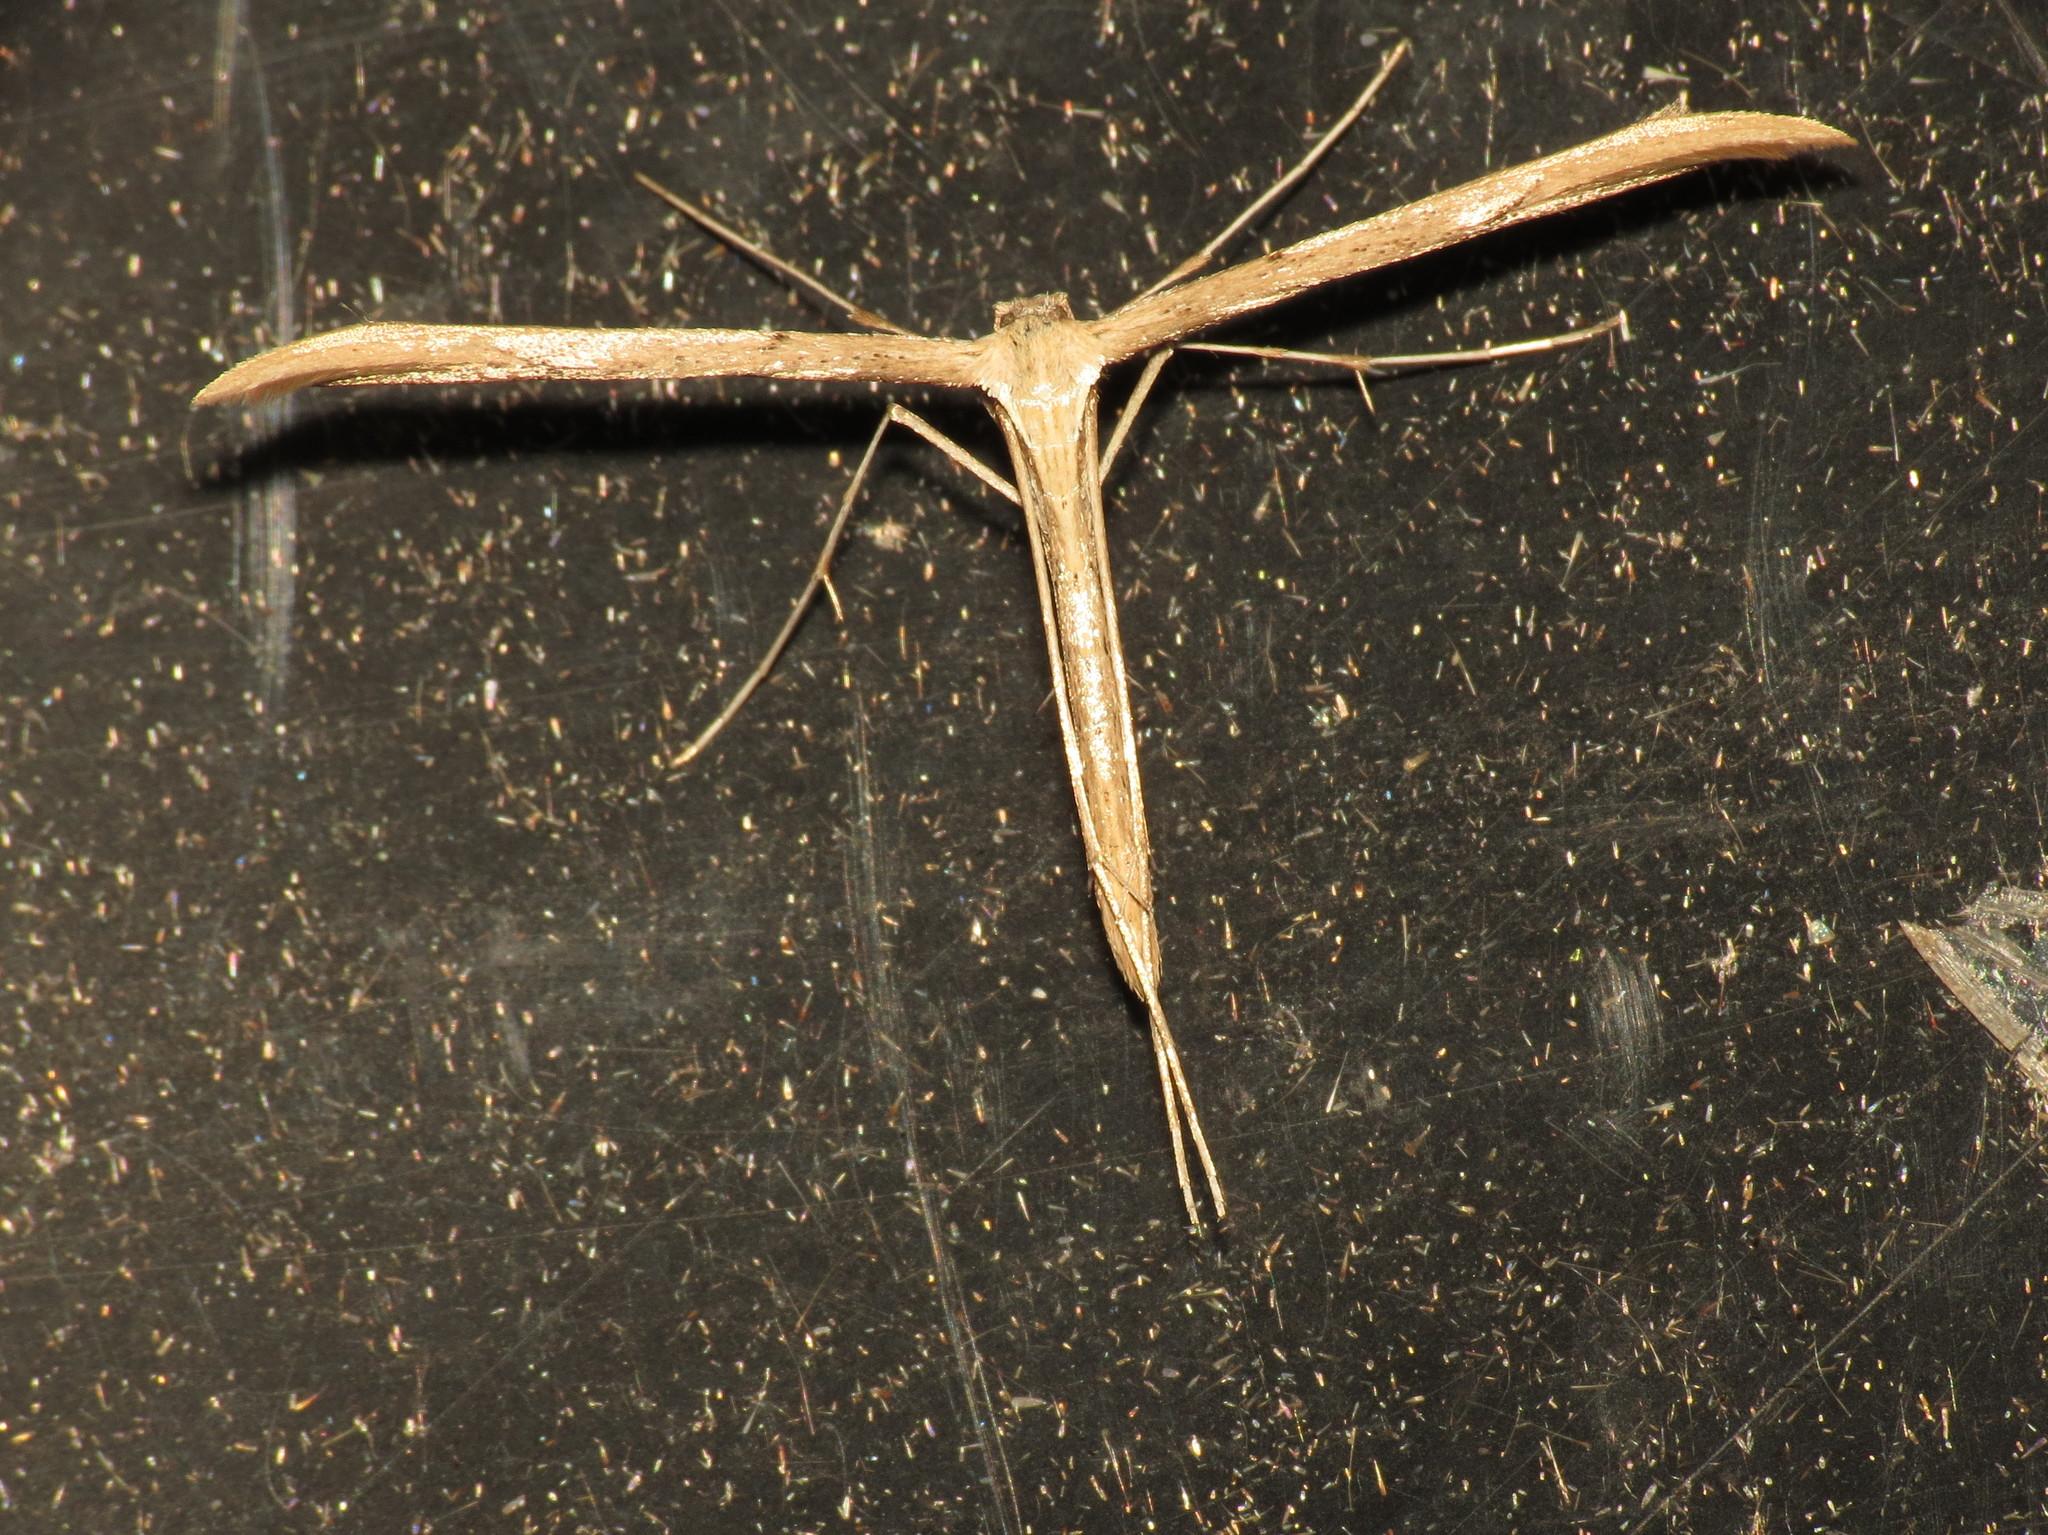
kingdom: Animalia
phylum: Arthropoda
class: Insecta
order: Lepidoptera
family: Pterophoridae
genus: Emmelina
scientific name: Emmelina monodactyla
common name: Common plume
